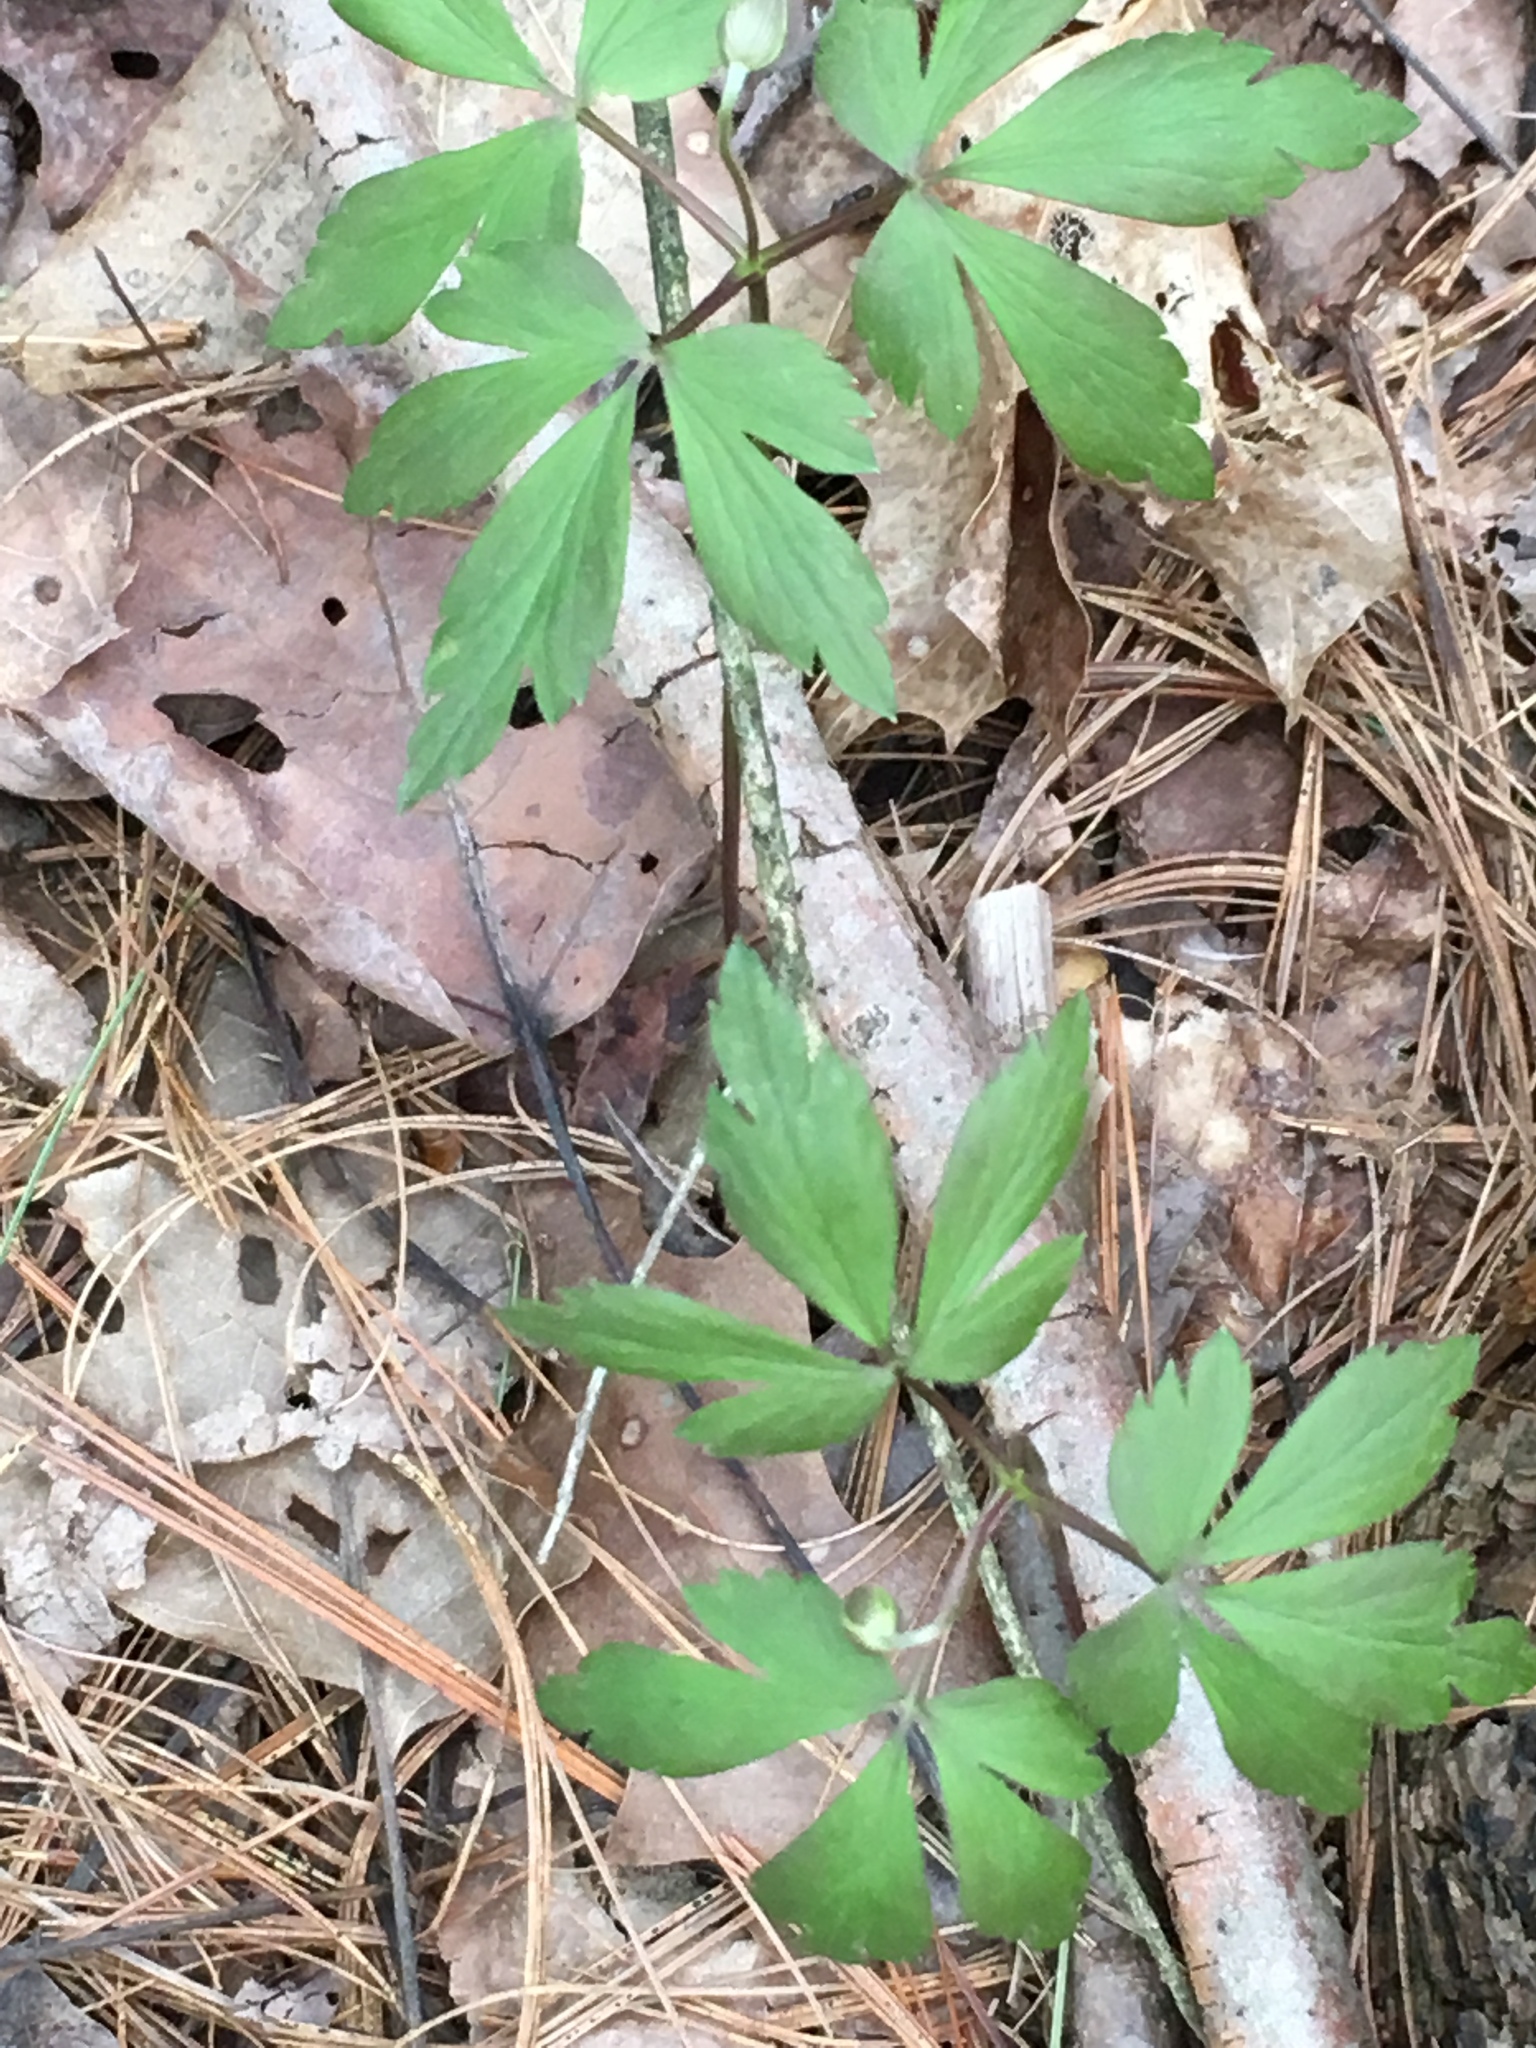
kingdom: Plantae
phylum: Tracheophyta
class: Magnoliopsida
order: Ranunculales
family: Ranunculaceae
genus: Anemone
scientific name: Anemone quinquefolia
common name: Wood anemone
